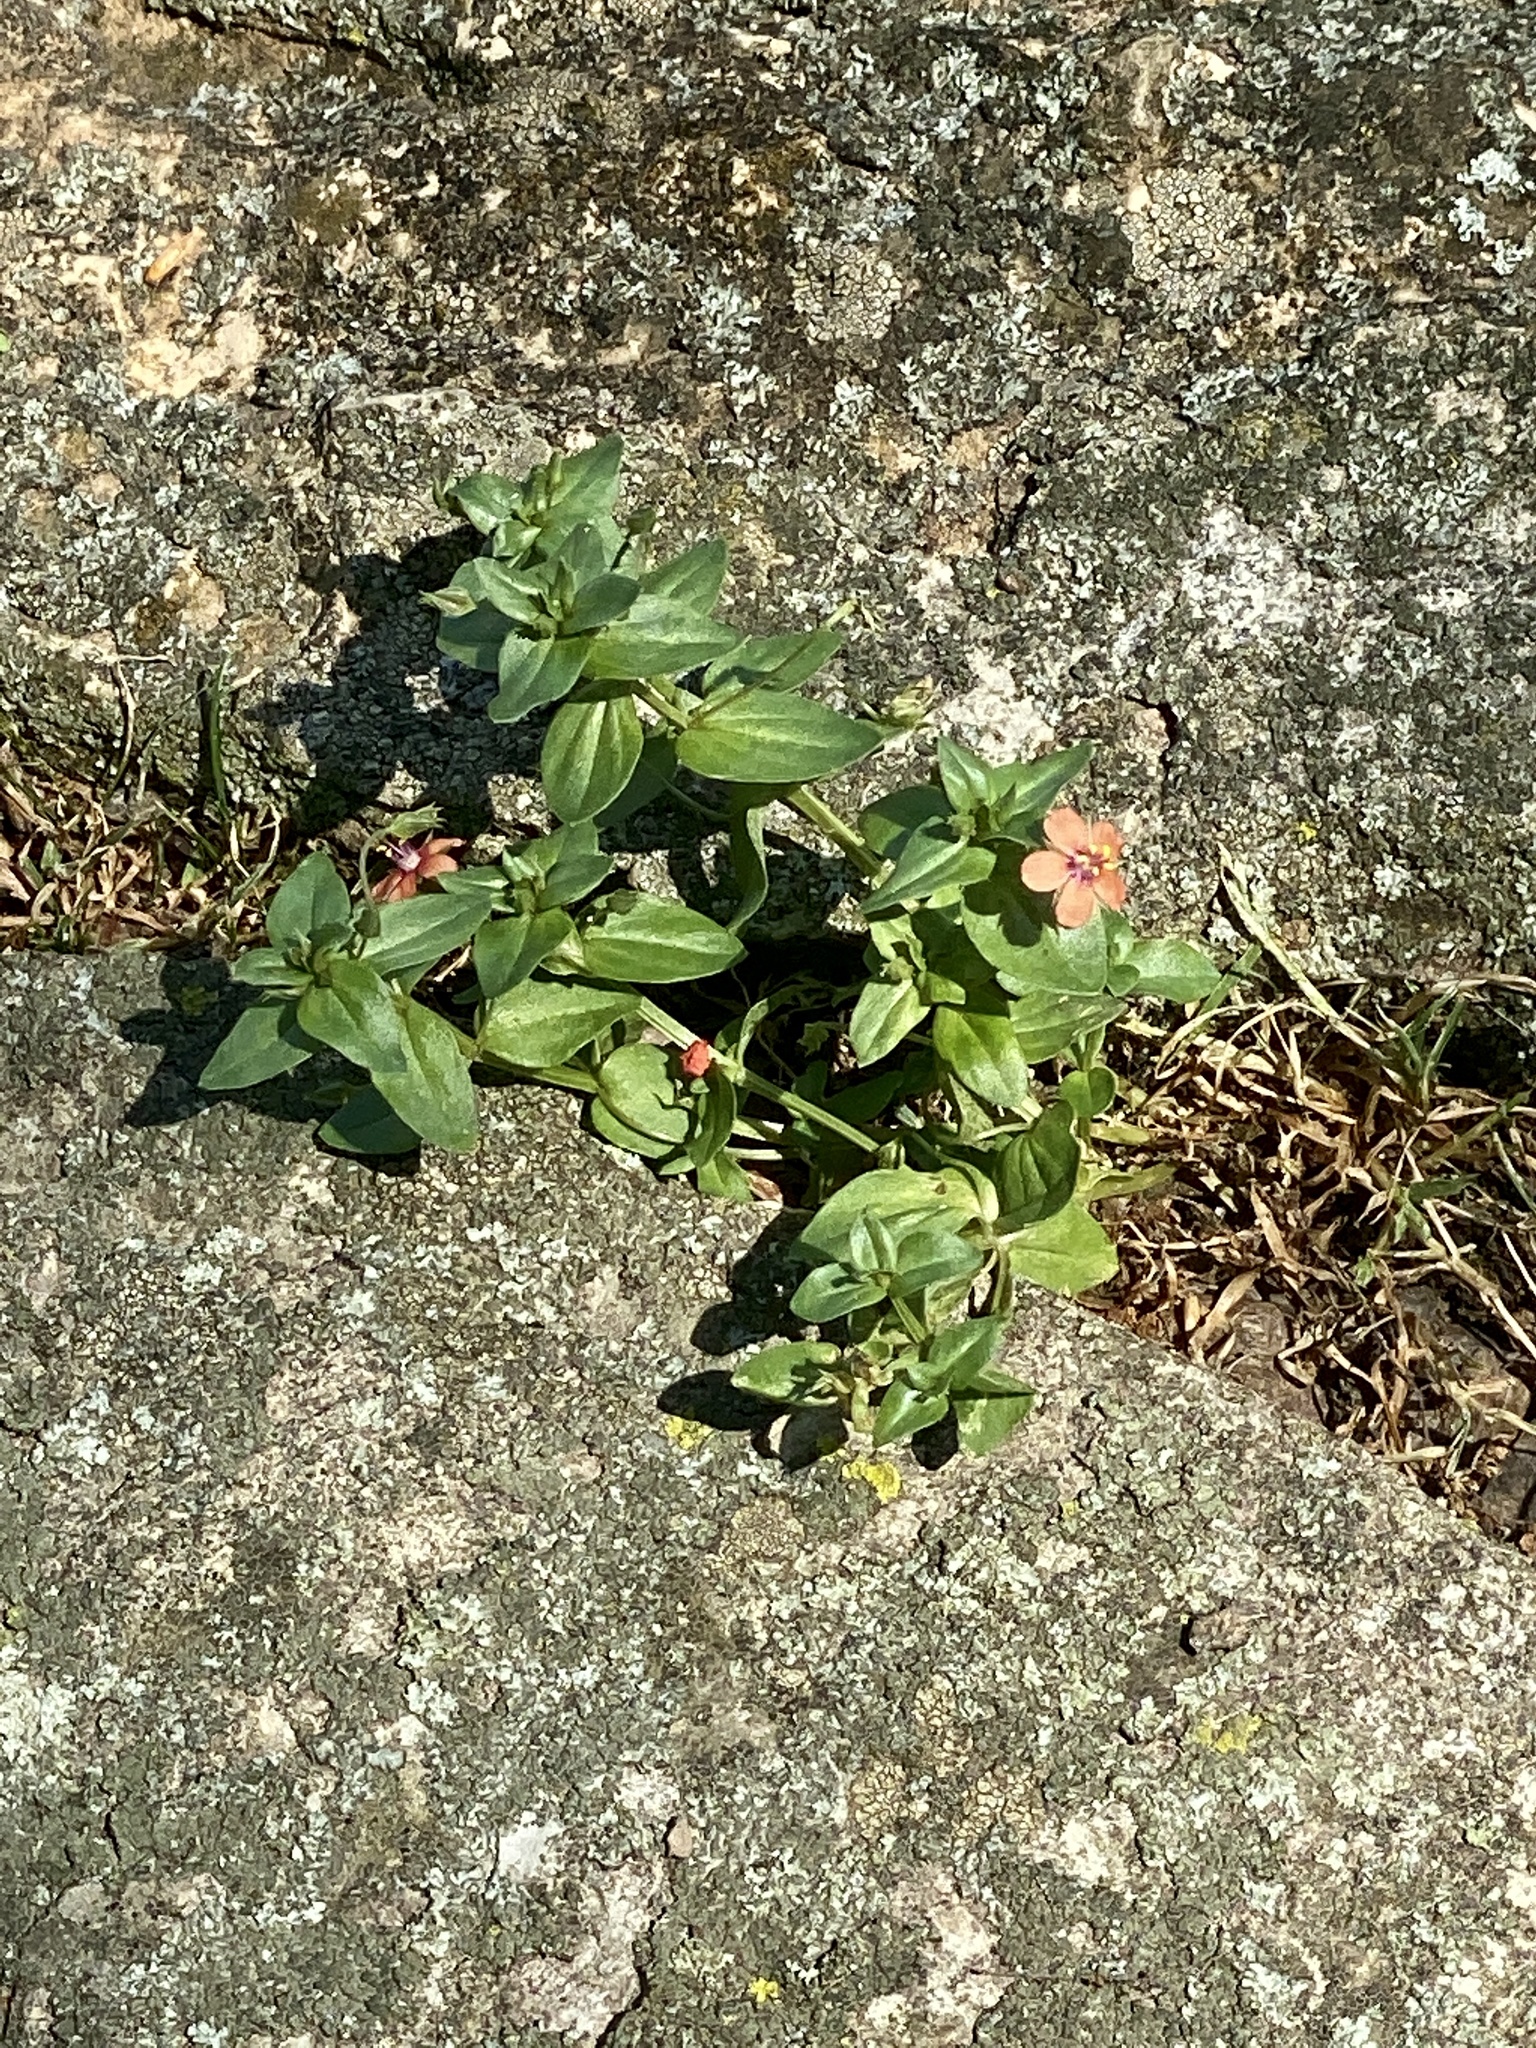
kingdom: Plantae
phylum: Tracheophyta
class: Magnoliopsida
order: Ericales
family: Primulaceae
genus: Lysimachia
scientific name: Lysimachia arvensis
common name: Scarlet pimpernel
